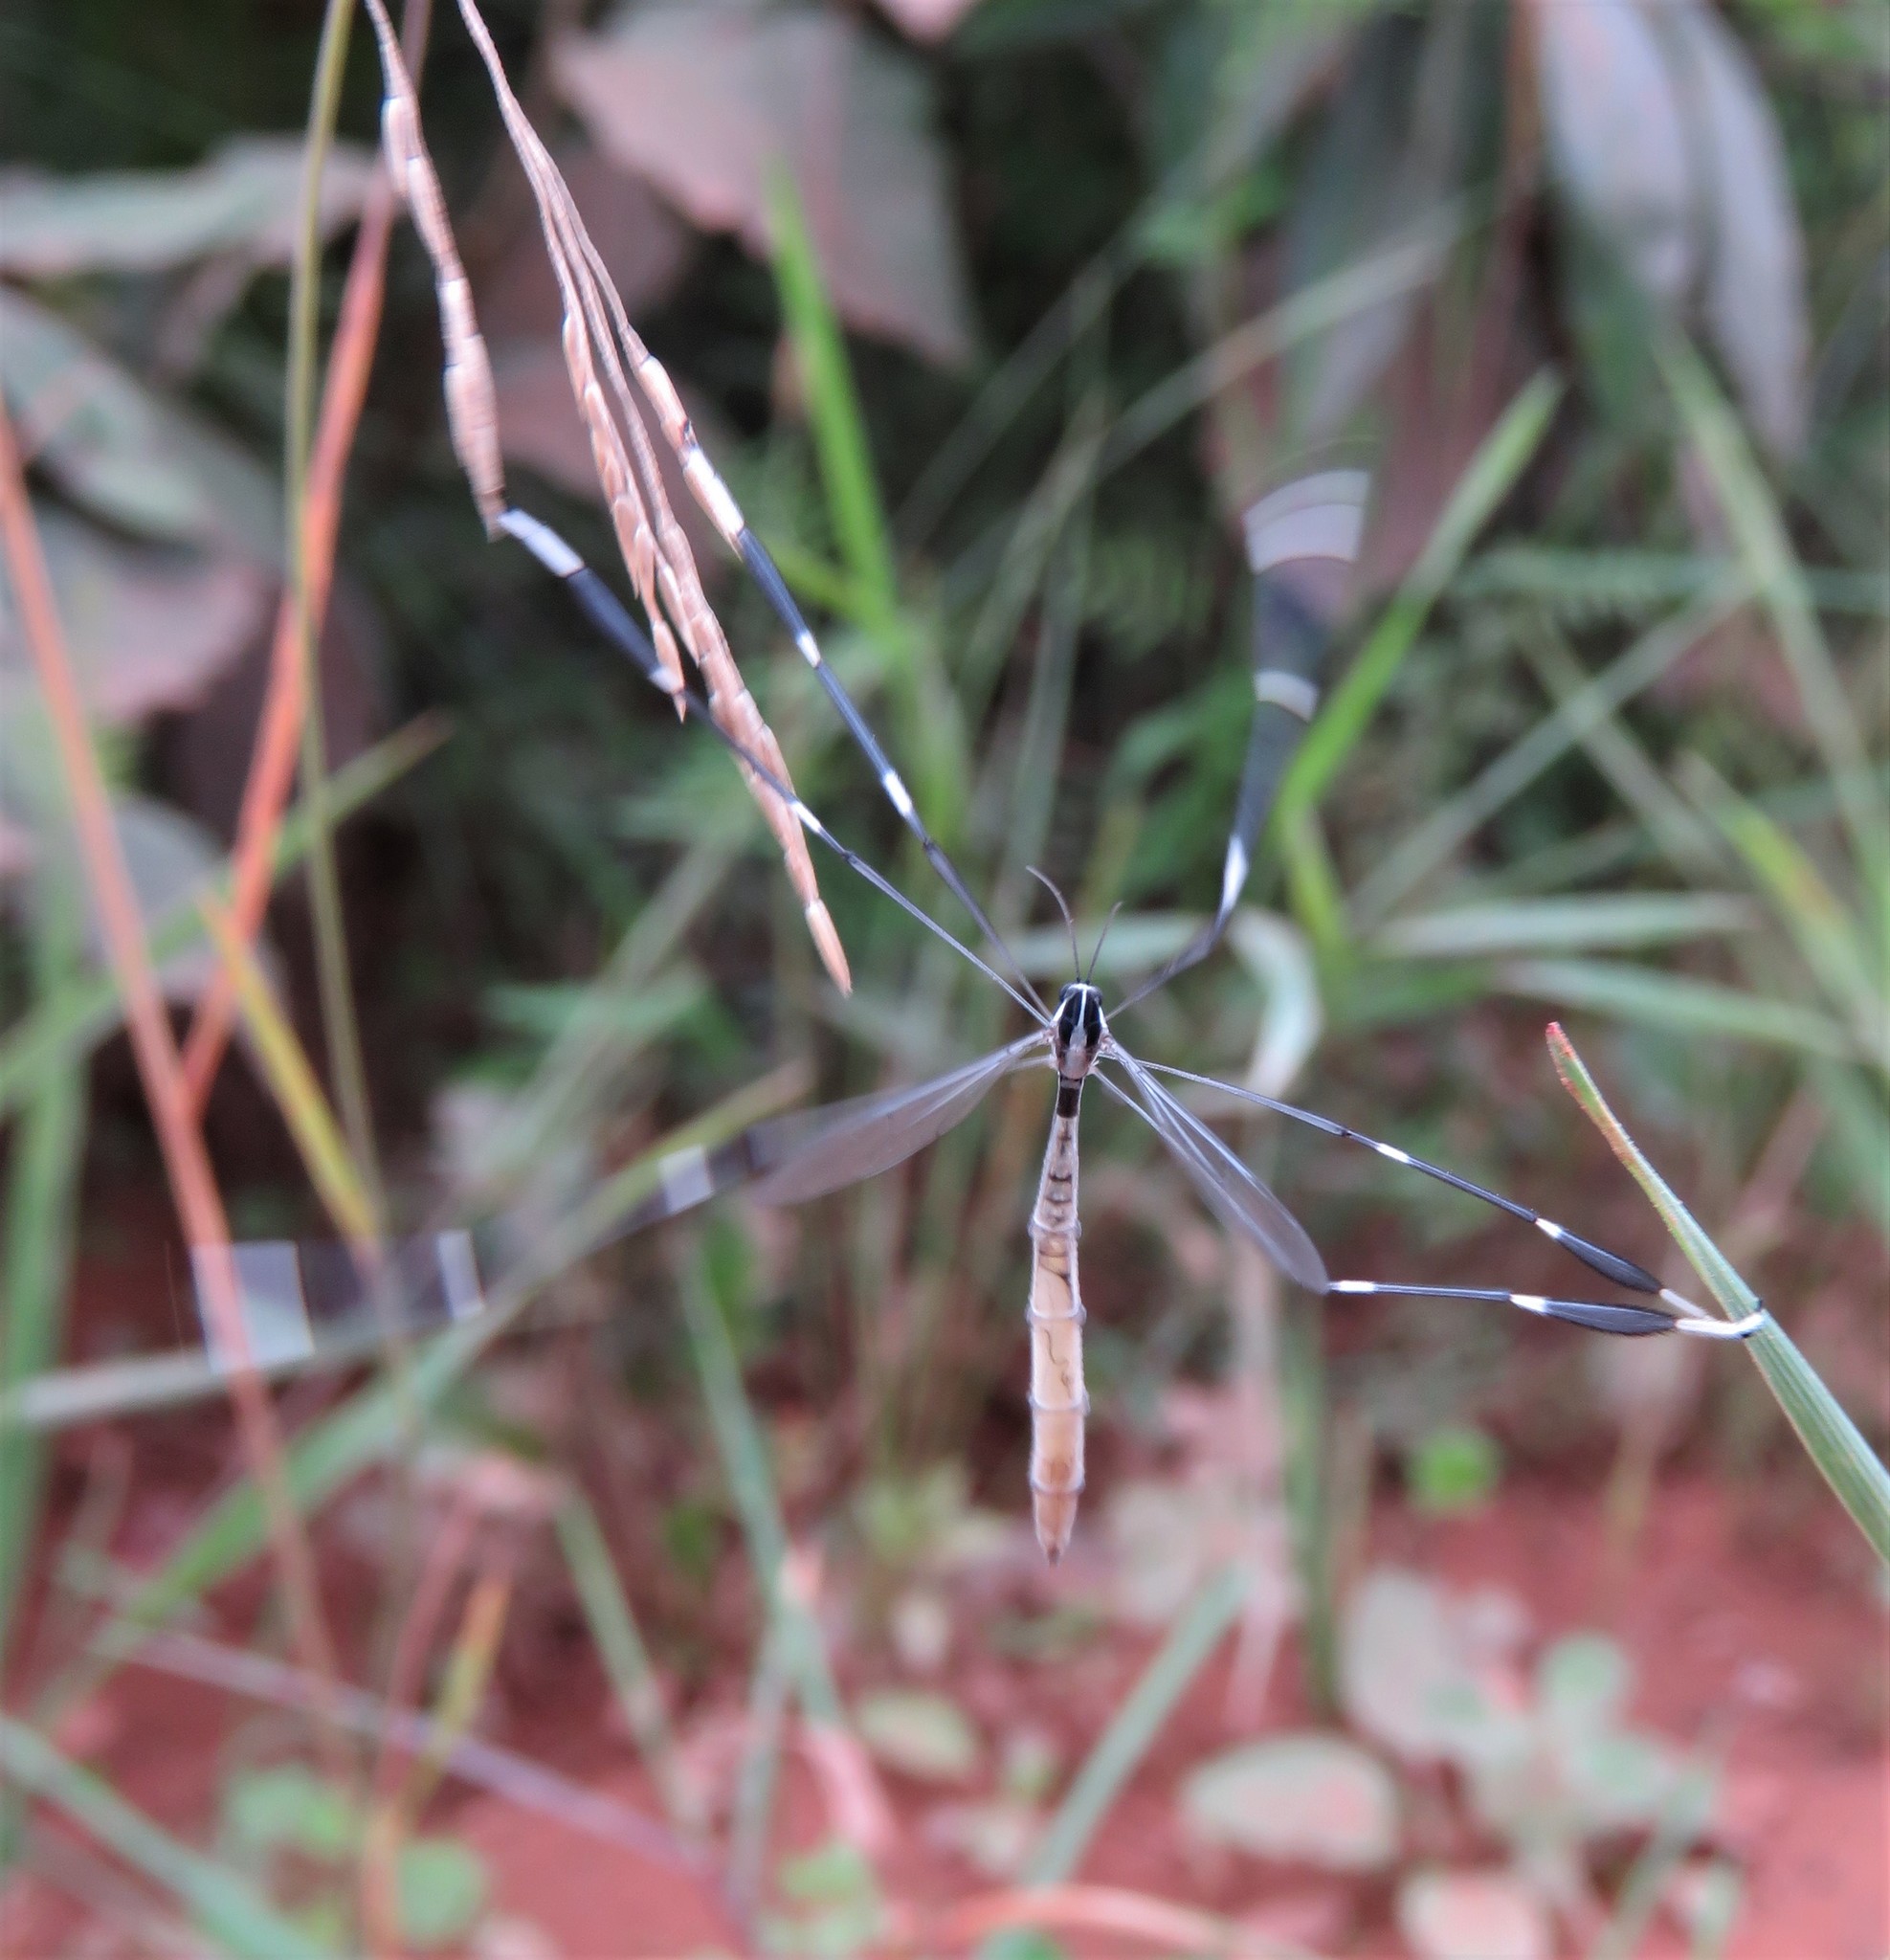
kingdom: Animalia
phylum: Arthropoda
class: Insecta
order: Diptera
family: Ptychopteridae
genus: Bittacomorpha
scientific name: Bittacomorpha clavipes
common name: Eastern phantom crane fly
